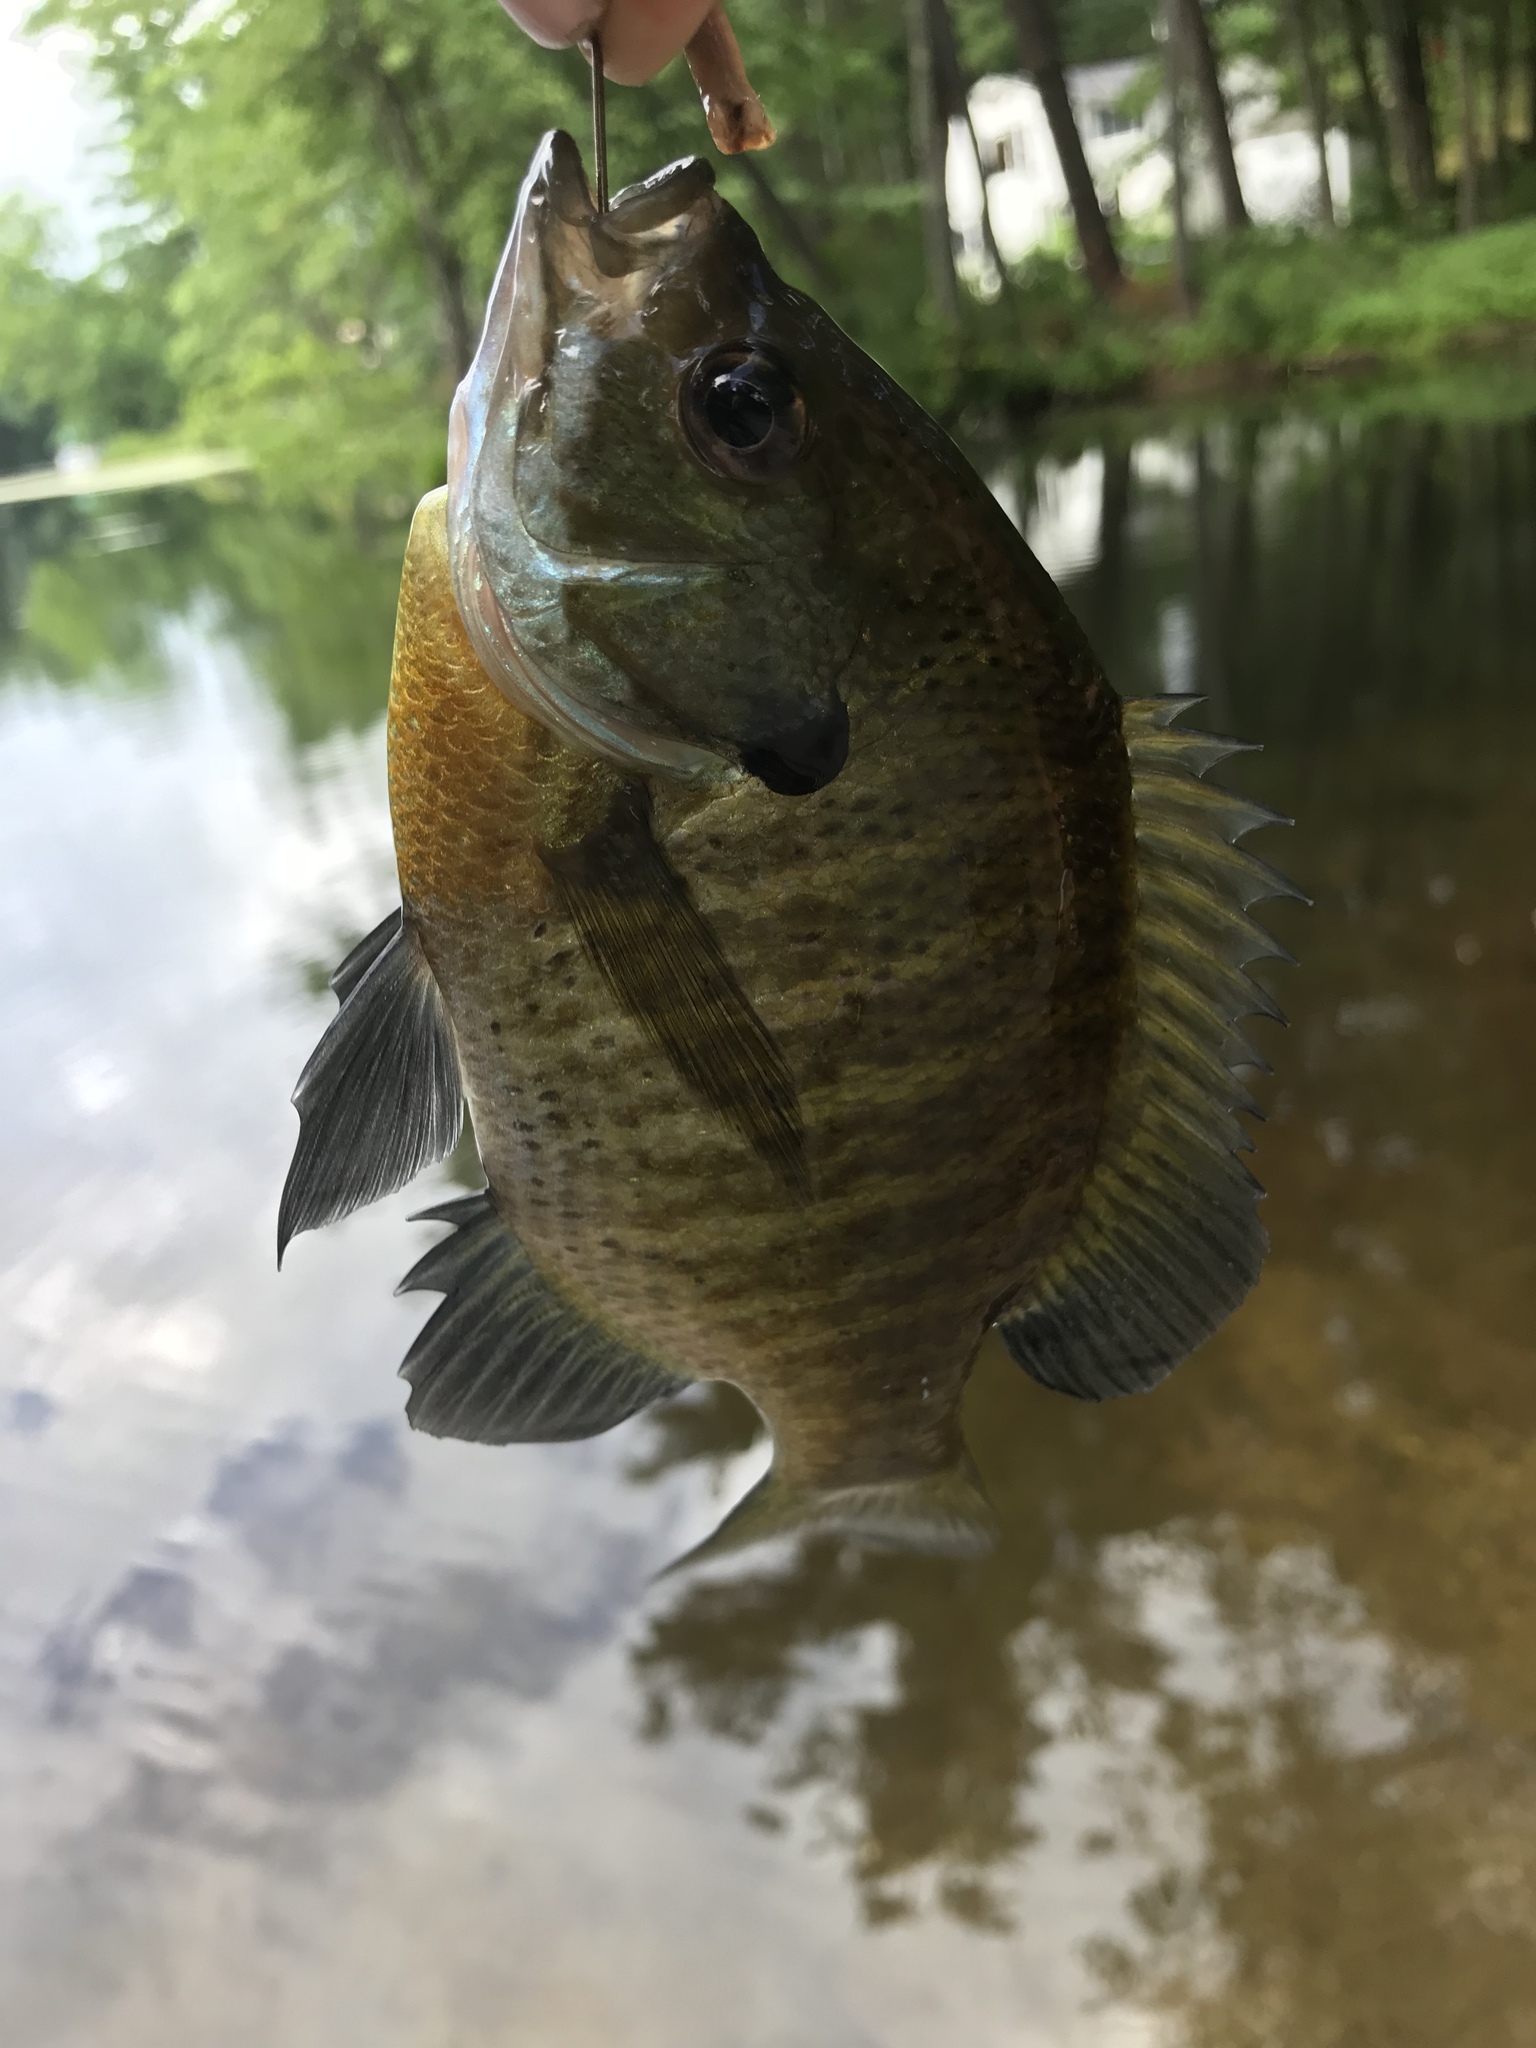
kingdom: Animalia
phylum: Chordata
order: Perciformes
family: Centrarchidae
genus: Lepomis
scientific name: Lepomis macrochirus
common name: Bluegill
